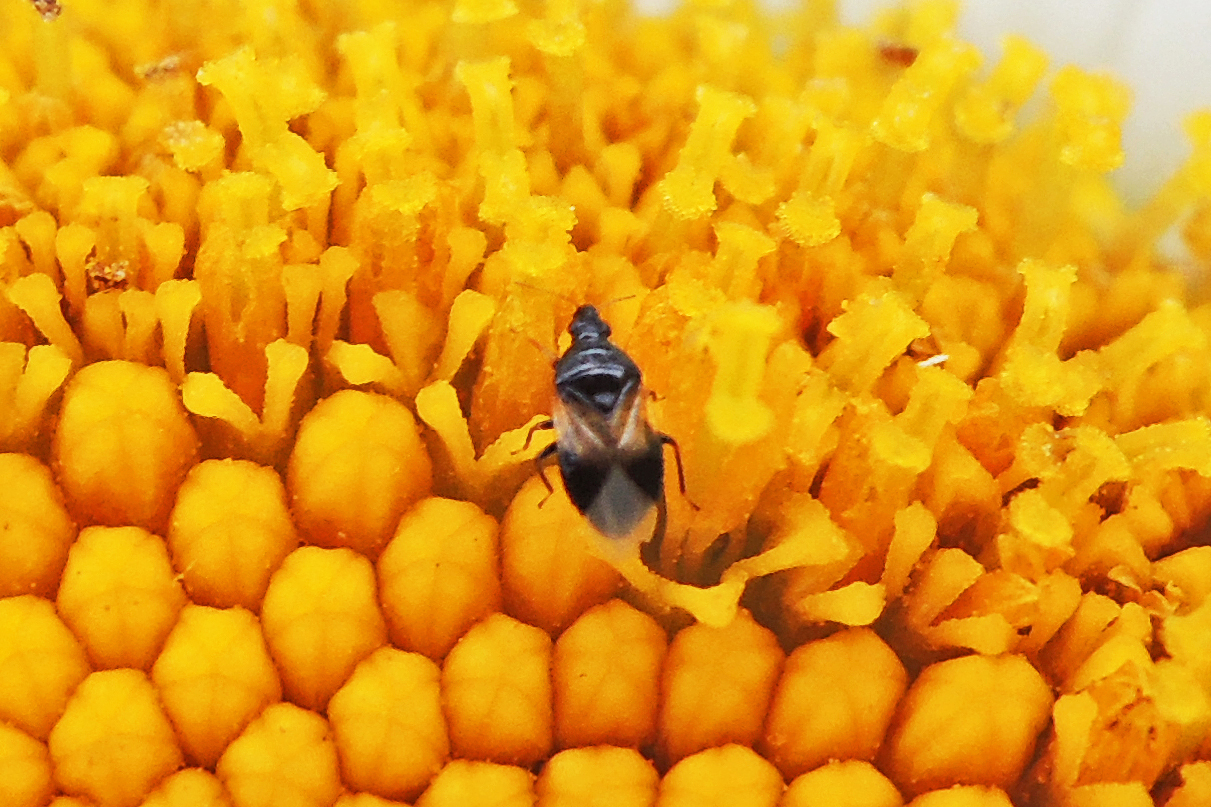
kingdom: Animalia
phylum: Arthropoda
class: Insecta
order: Hemiptera
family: Anthocoridae
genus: Orius
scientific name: Orius insidiosus
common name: Insidious flower bug
